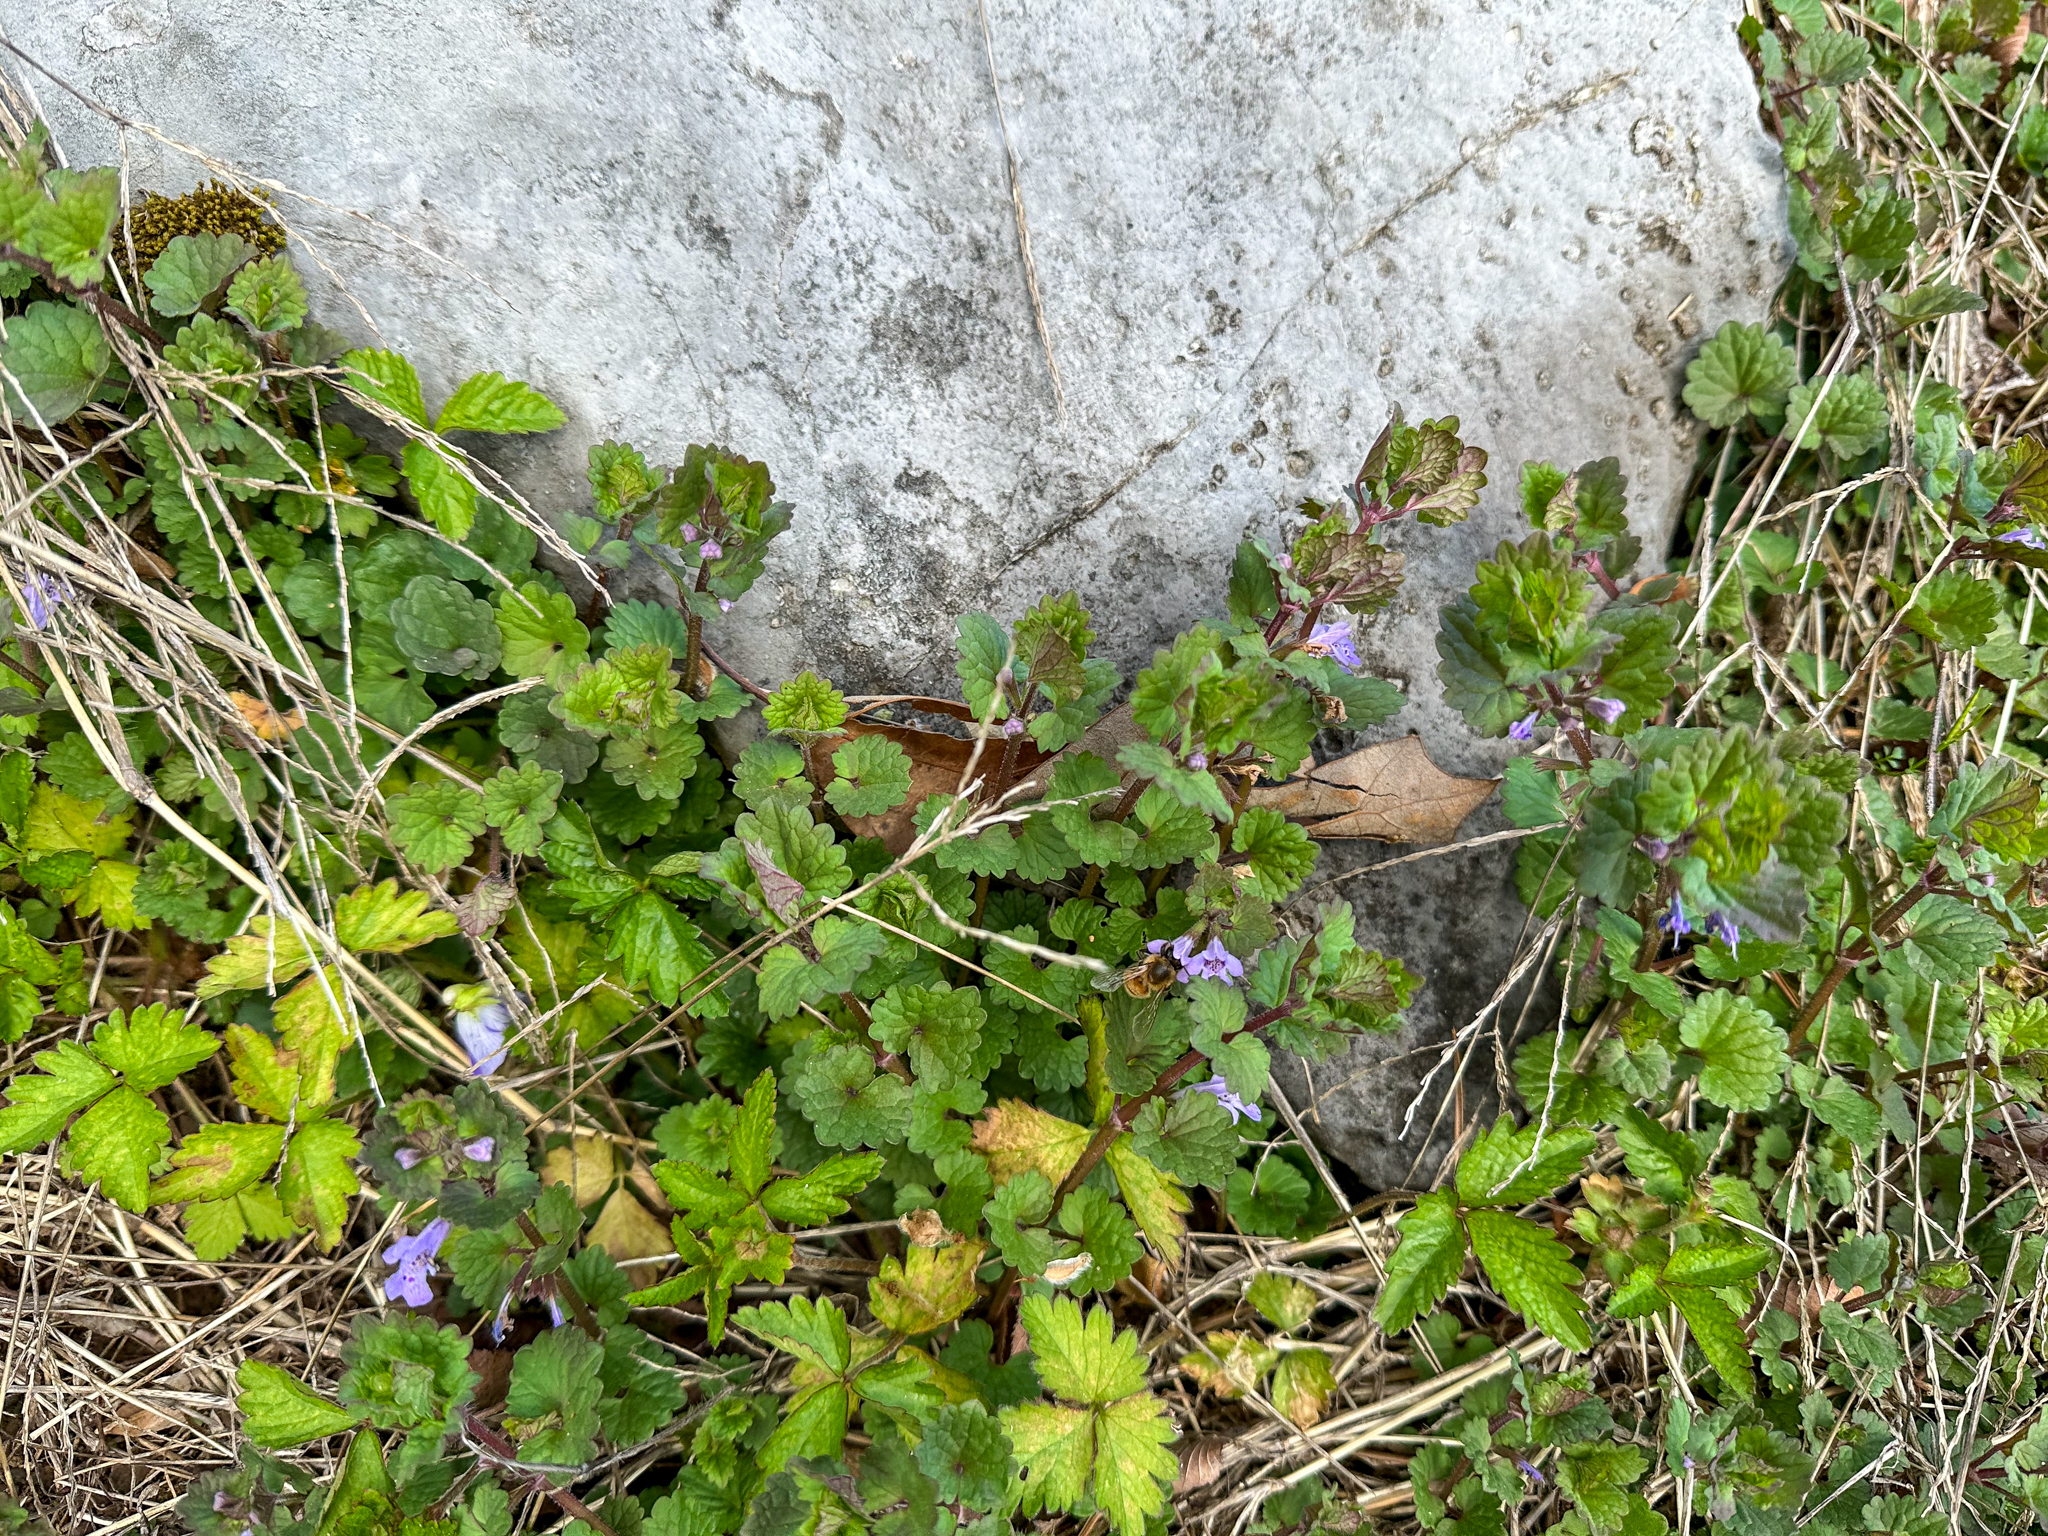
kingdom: Plantae
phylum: Tracheophyta
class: Magnoliopsida
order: Lamiales
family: Lamiaceae
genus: Glechoma
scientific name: Glechoma hederacea
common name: Ground ivy
